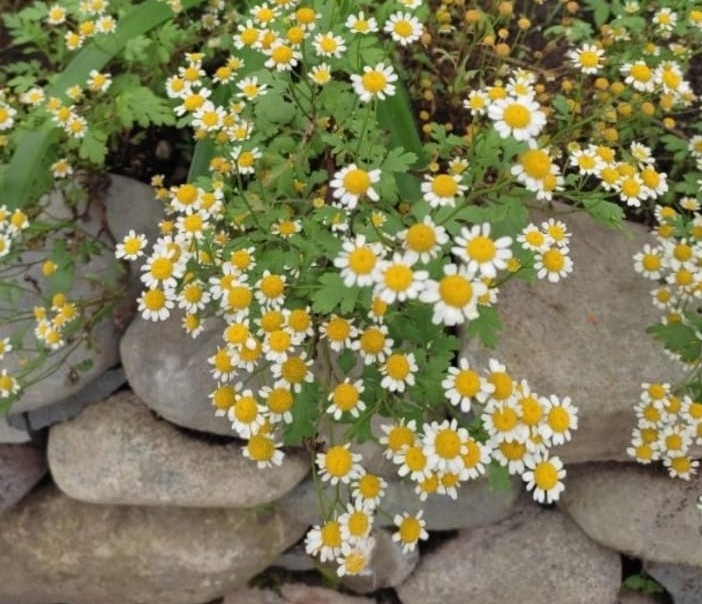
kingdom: Plantae
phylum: Tracheophyta
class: Magnoliopsida
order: Asterales
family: Asteraceae
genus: Tanacetum
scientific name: Tanacetum partheniifolium
